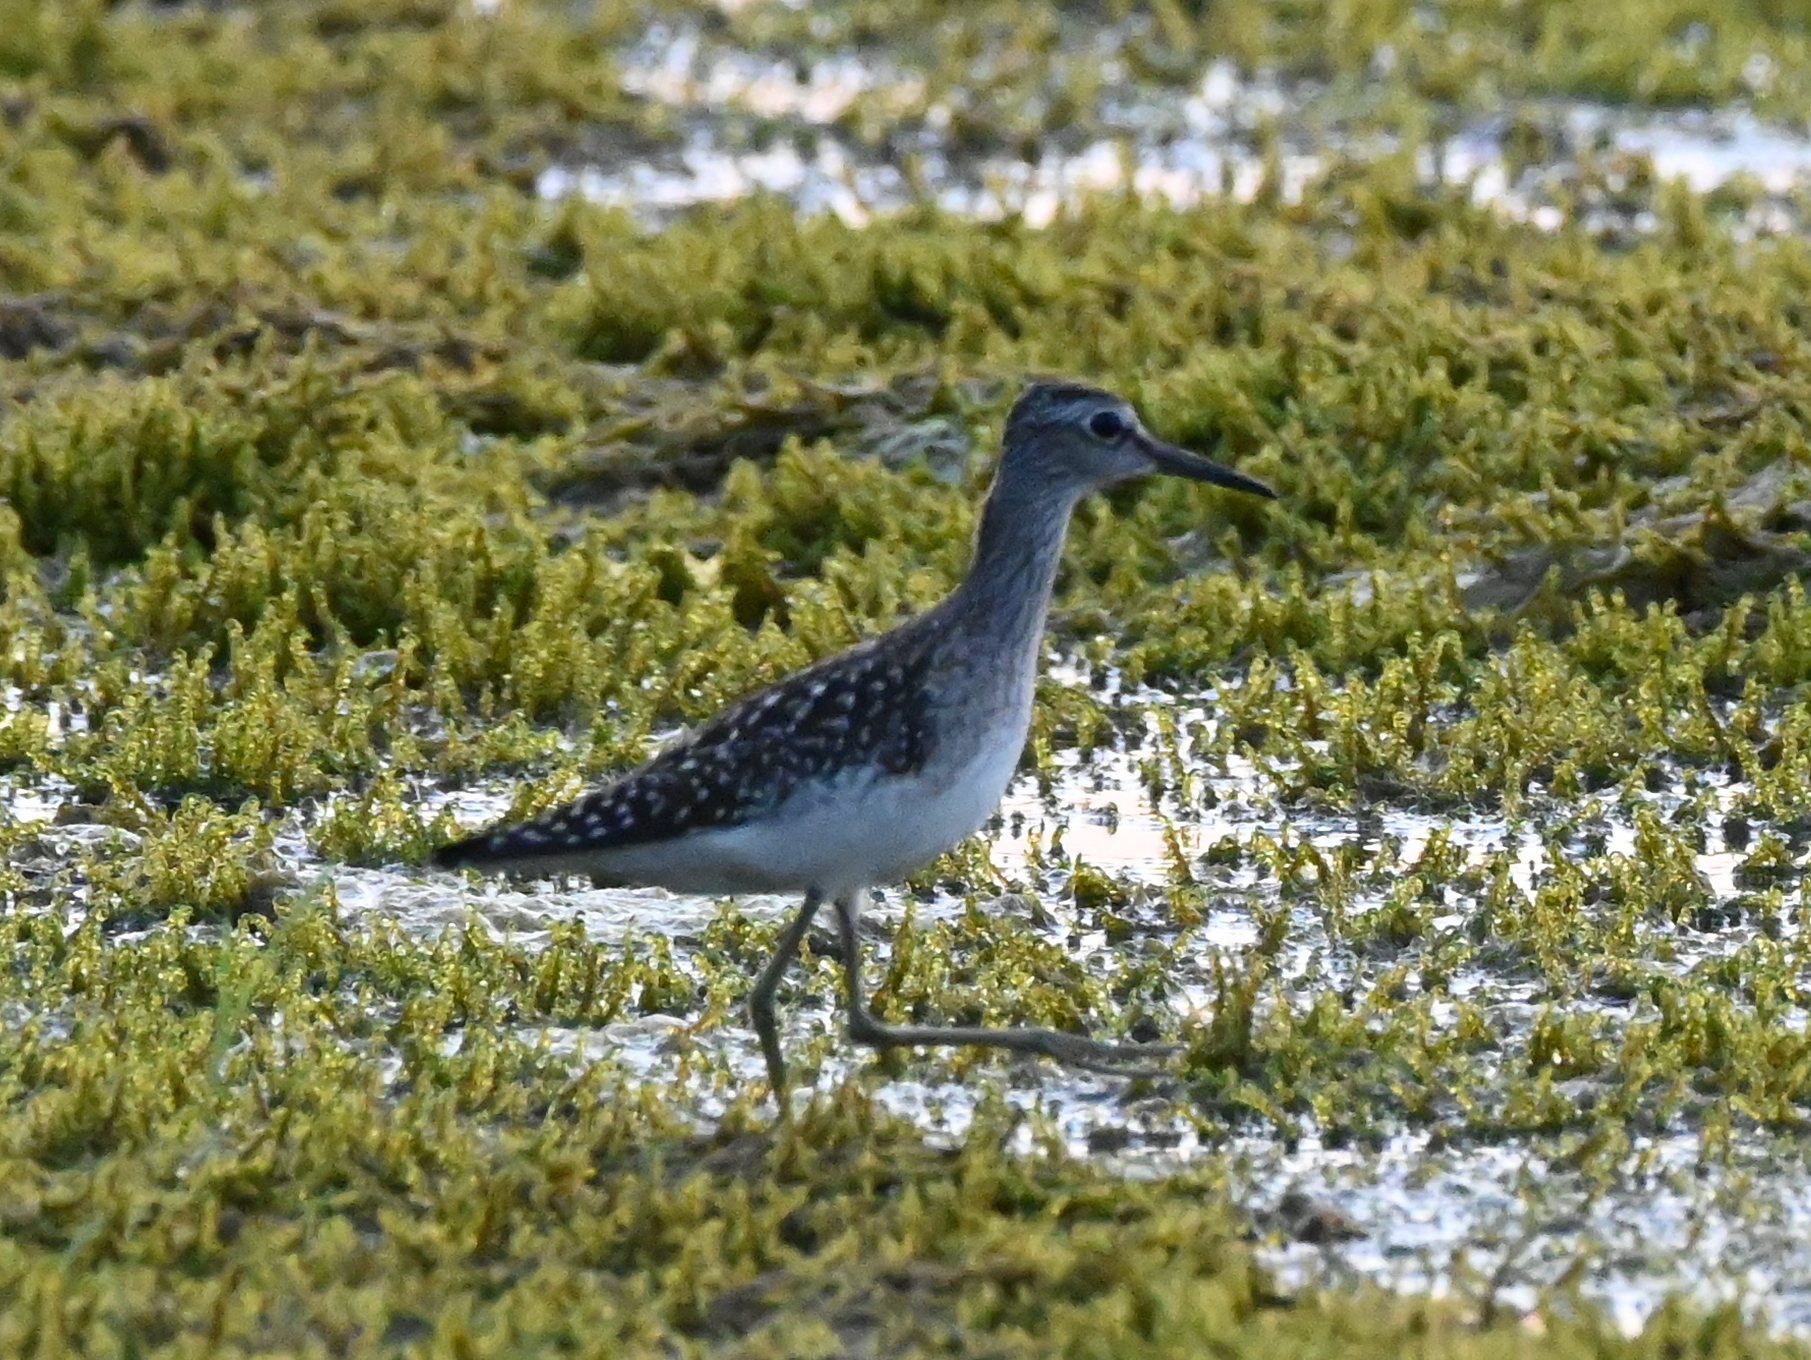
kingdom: Animalia
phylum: Chordata
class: Aves
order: Charadriiformes
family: Scolopacidae
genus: Tringa
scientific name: Tringa glareola
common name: Wood sandpiper
